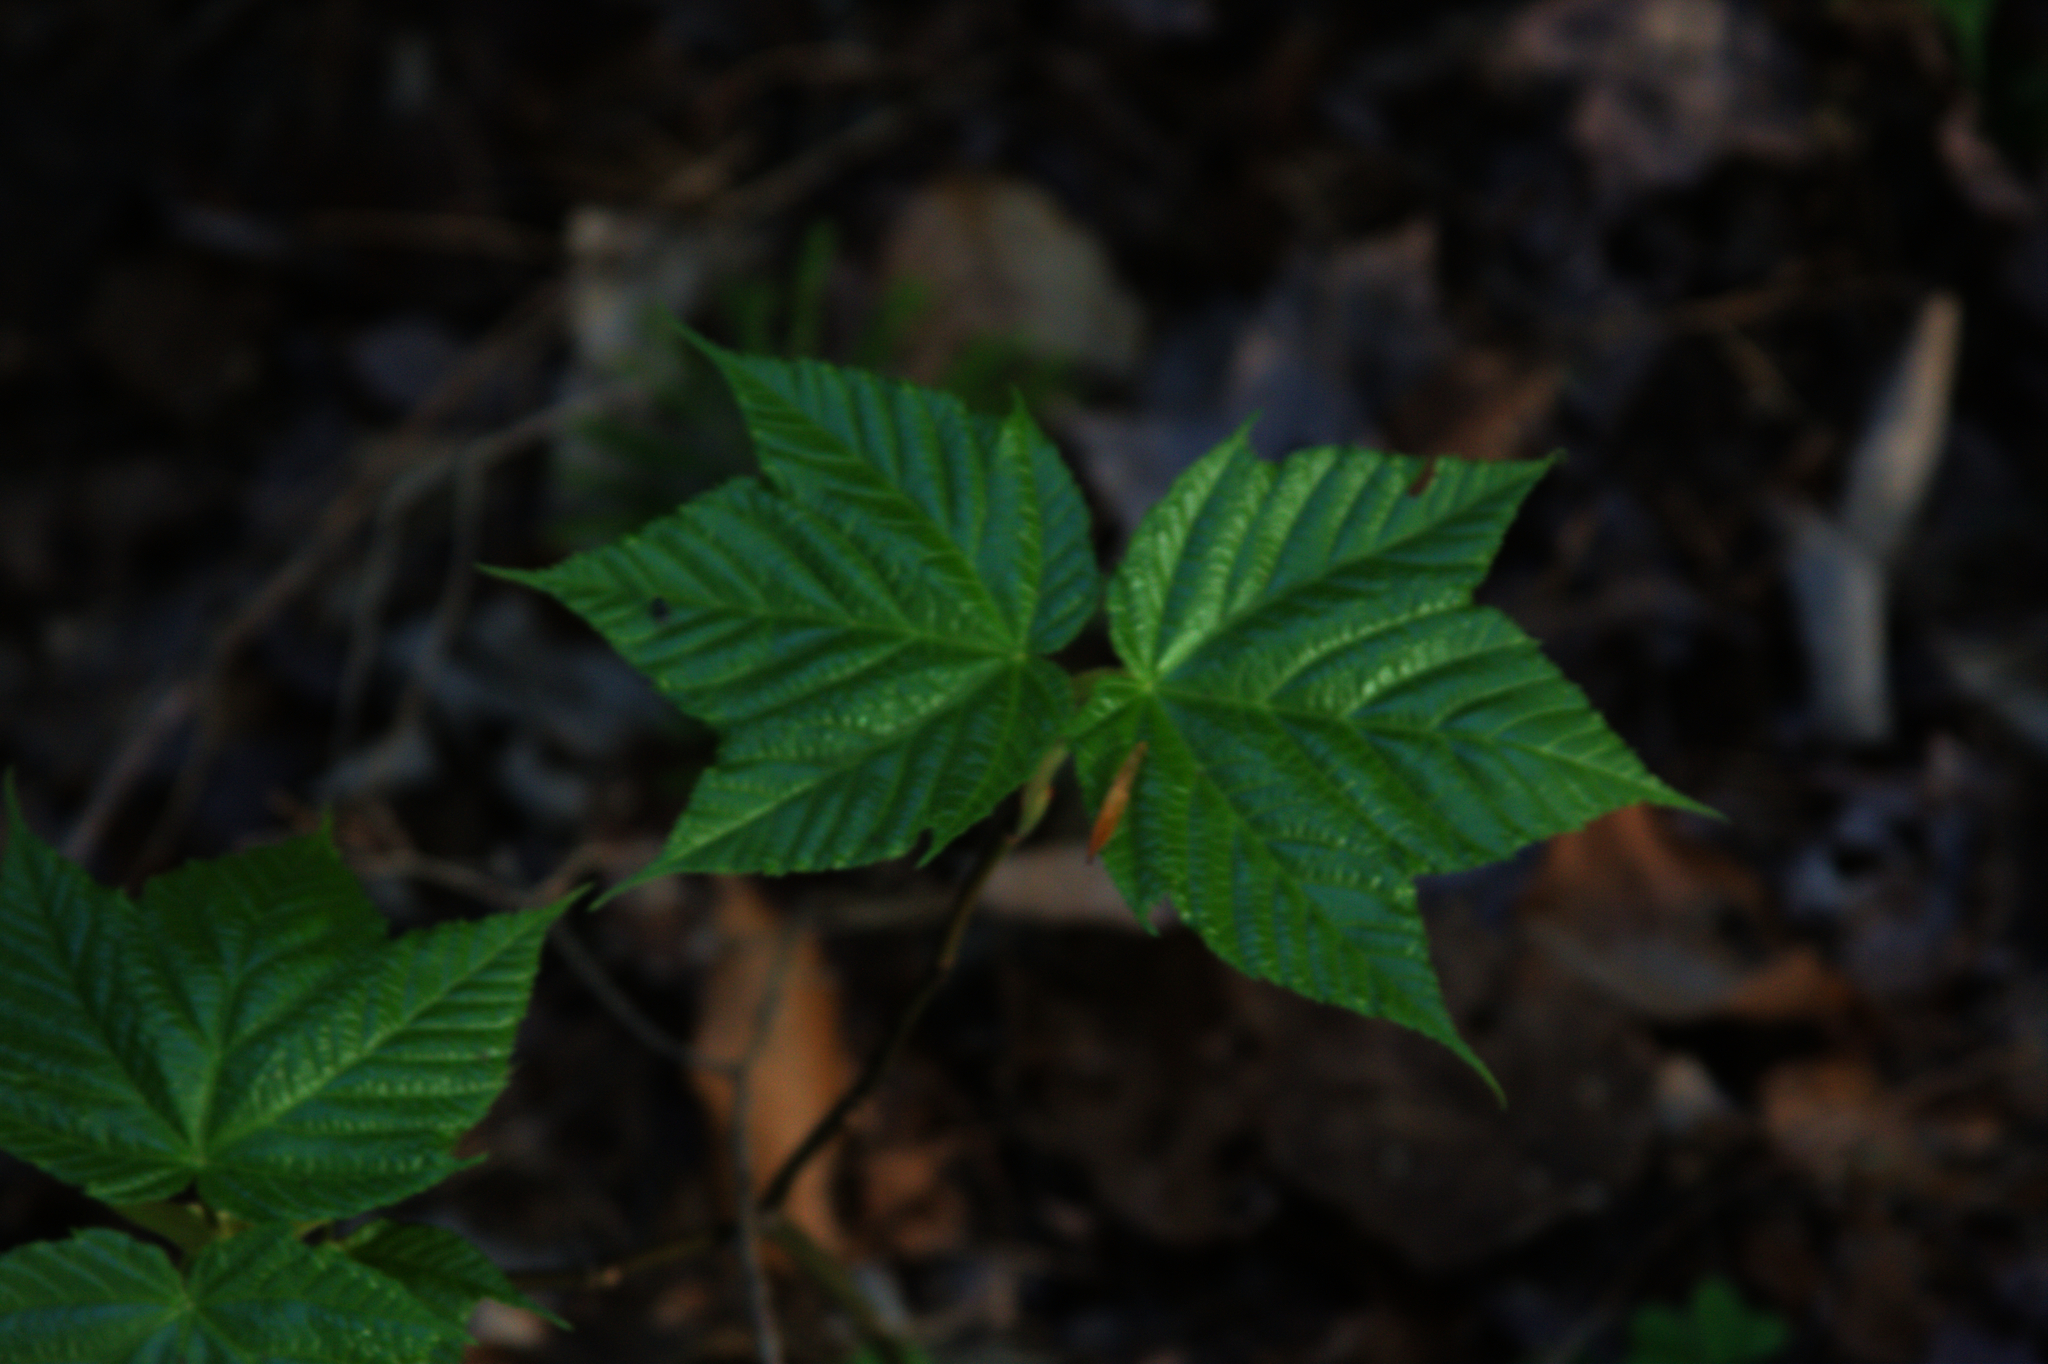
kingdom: Plantae
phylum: Tracheophyta
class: Magnoliopsida
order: Sapindales
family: Sapindaceae
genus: Acer
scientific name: Acer pensylvanicum
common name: Moosewood
